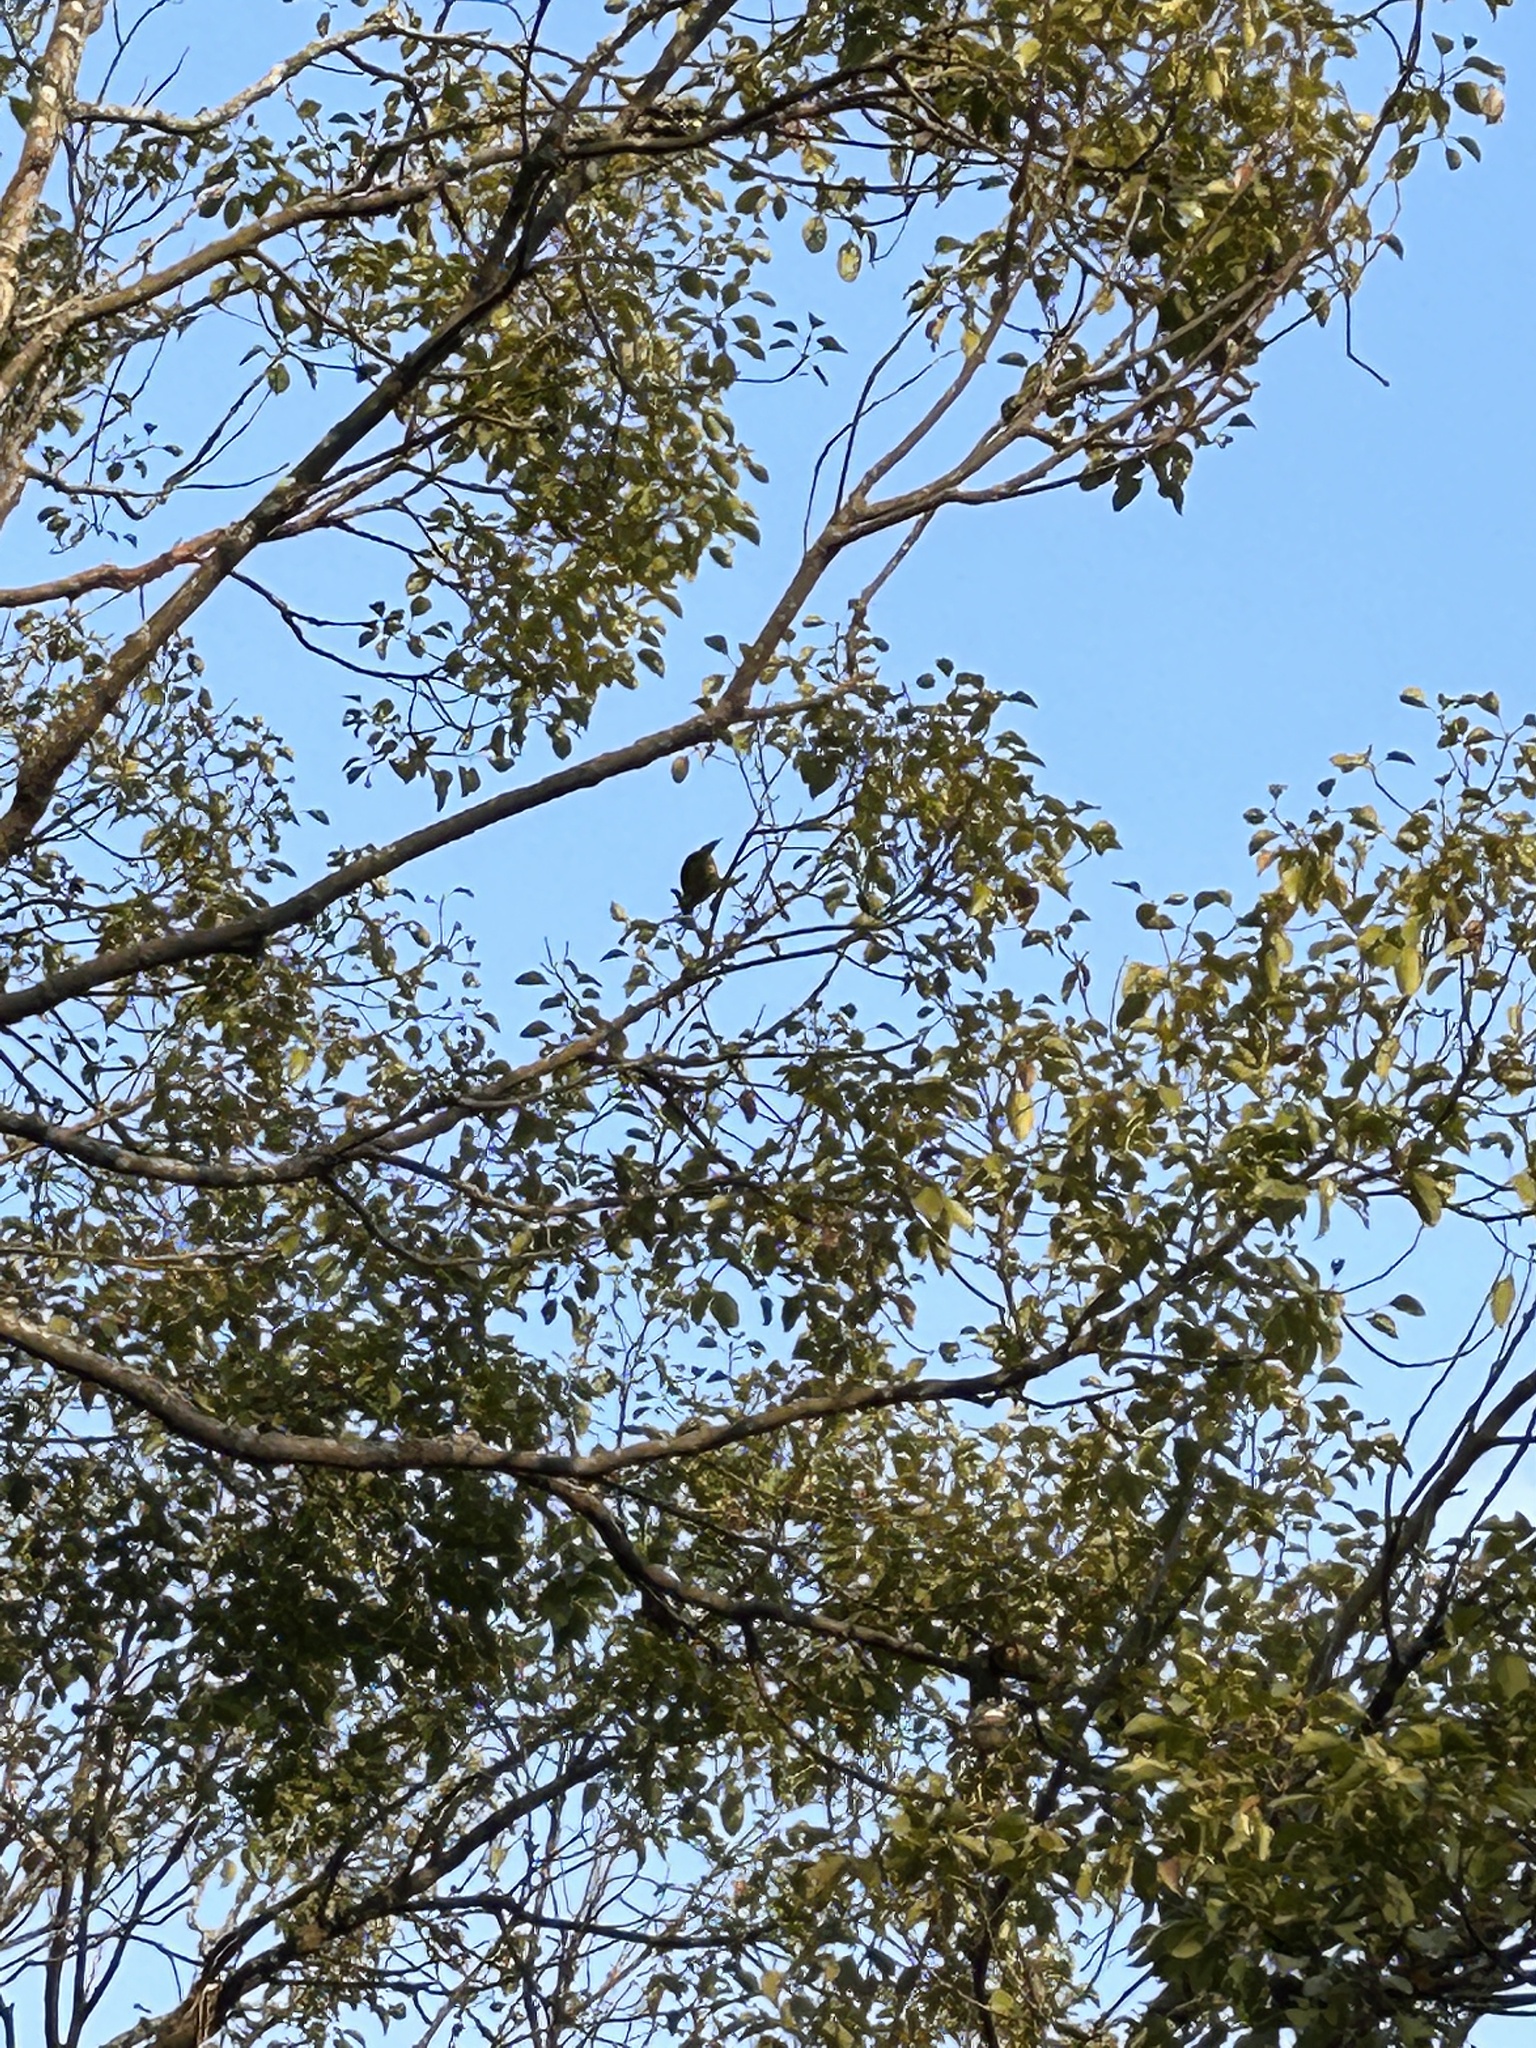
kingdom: Animalia
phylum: Chordata
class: Aves
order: Passeriformes
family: Pycnonotidae
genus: Pycnonotus
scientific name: Pycnonotus flaviventris
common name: Black-crested bulbul
